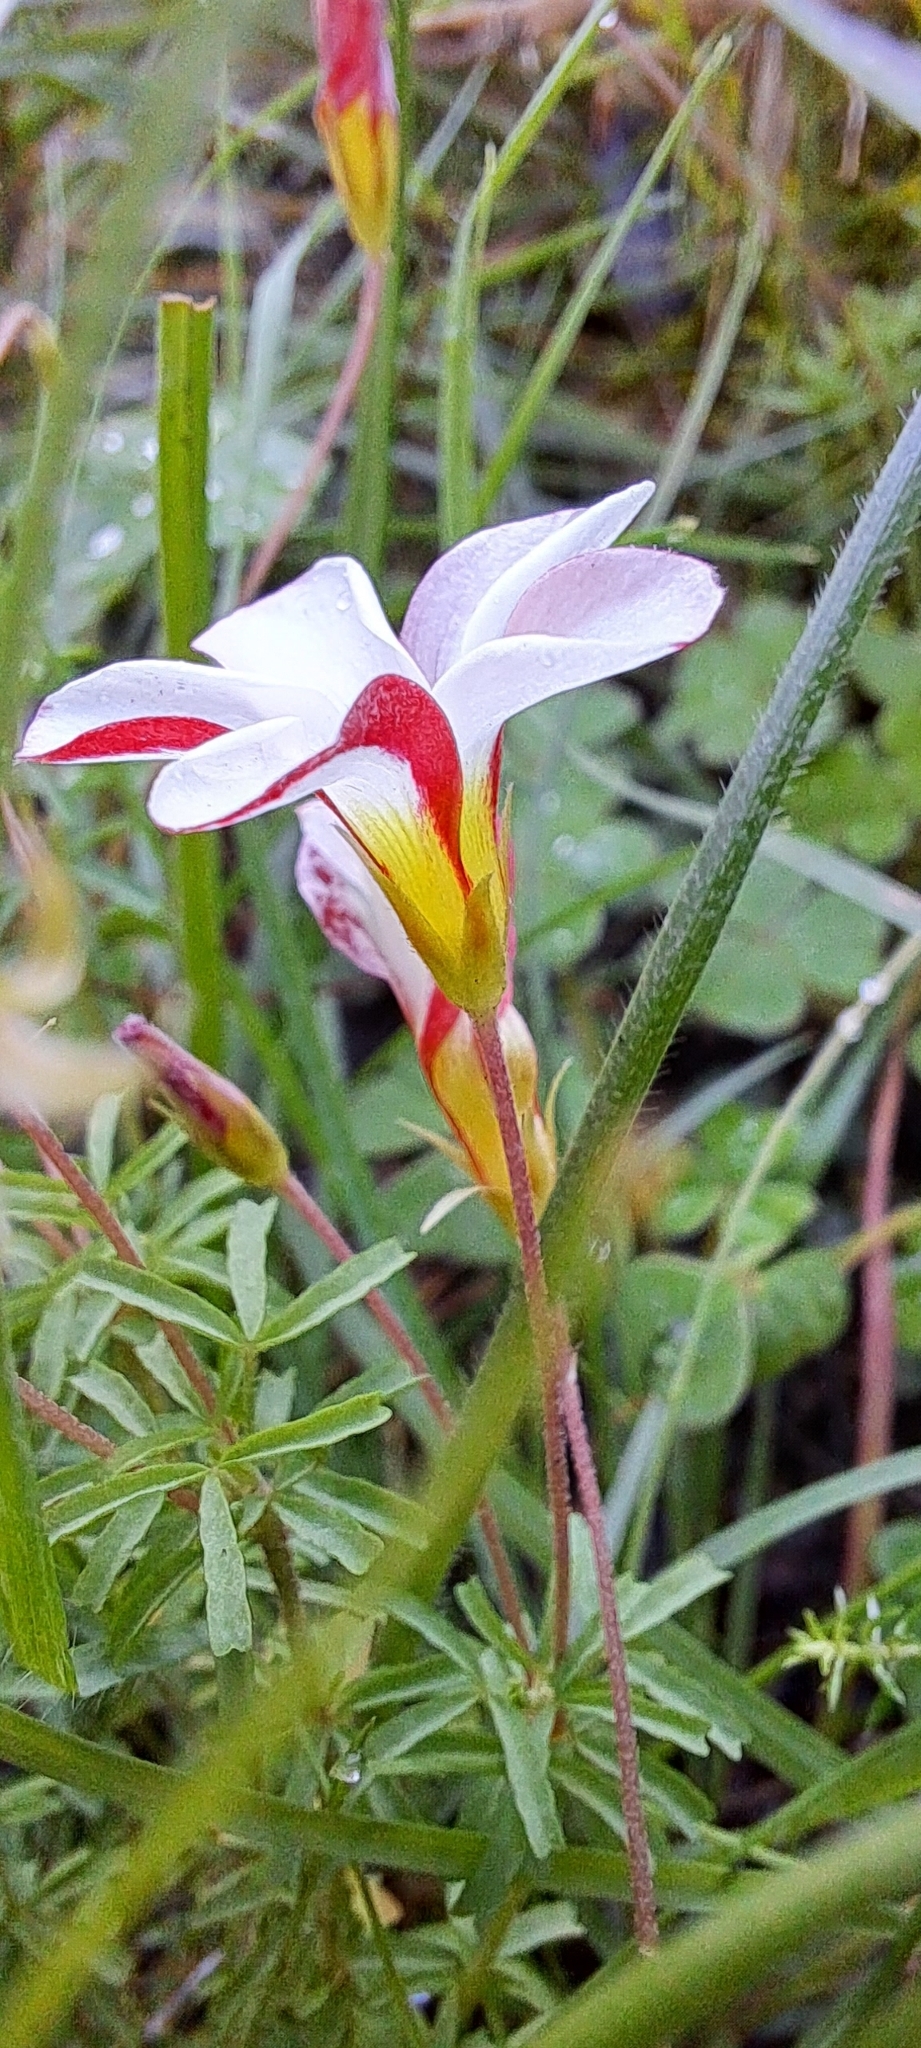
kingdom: Plantae
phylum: Tracheophyta
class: Magnoliopsida
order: Oxalidales
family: Oxalidaceae
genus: Oxalis
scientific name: Oxalis tenuifolia
